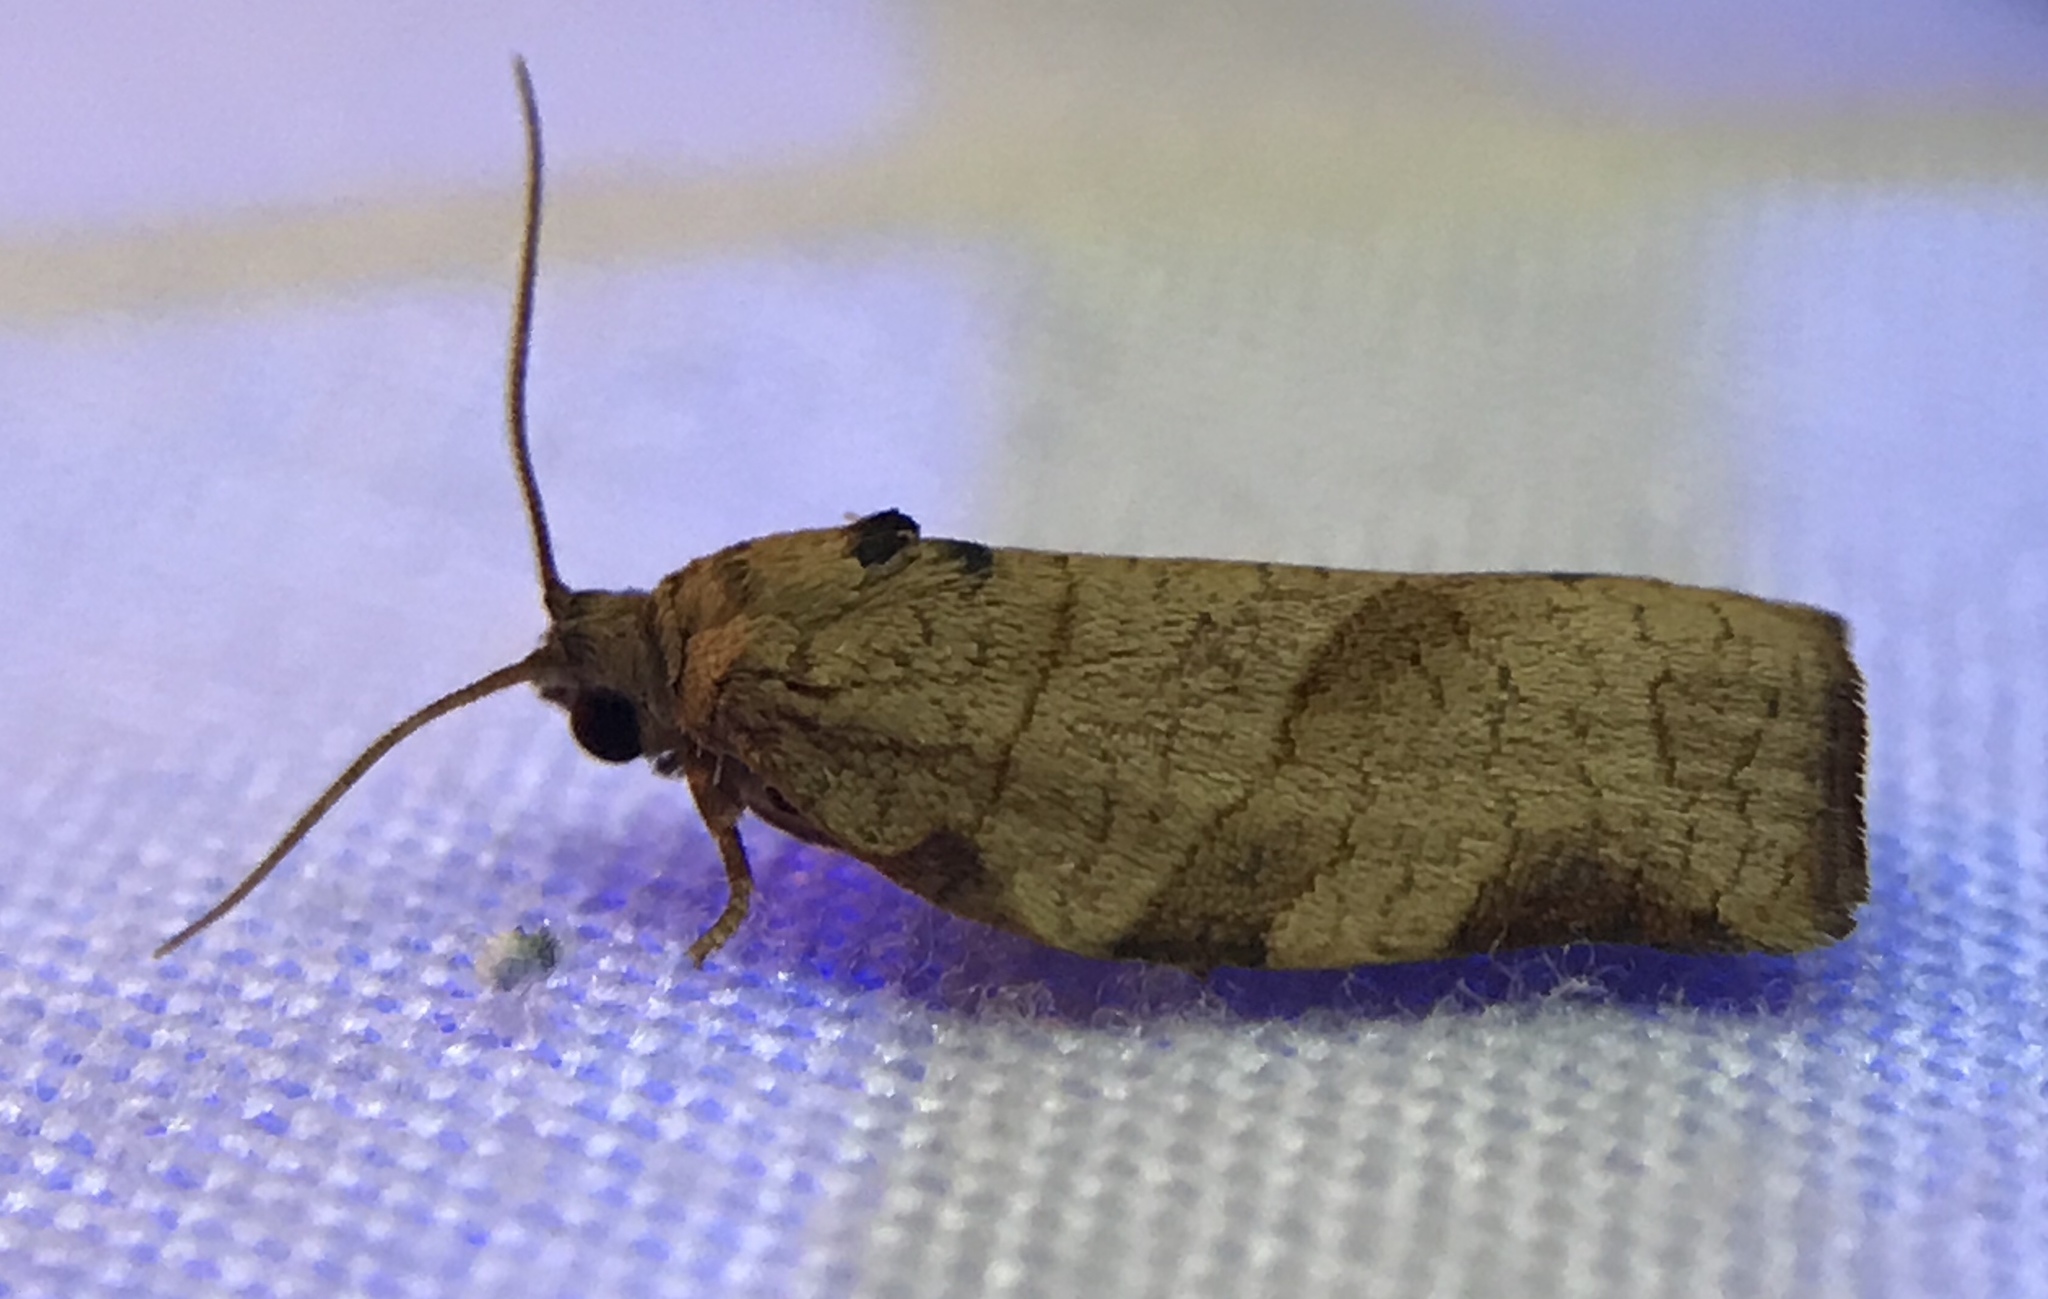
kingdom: Animalia
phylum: Arthropoda
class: Insecta
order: Lepidoptera
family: Tortricidae
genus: Choristoneura
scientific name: Choristoneura rosaceana
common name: Oblique-banded leafroller moth
